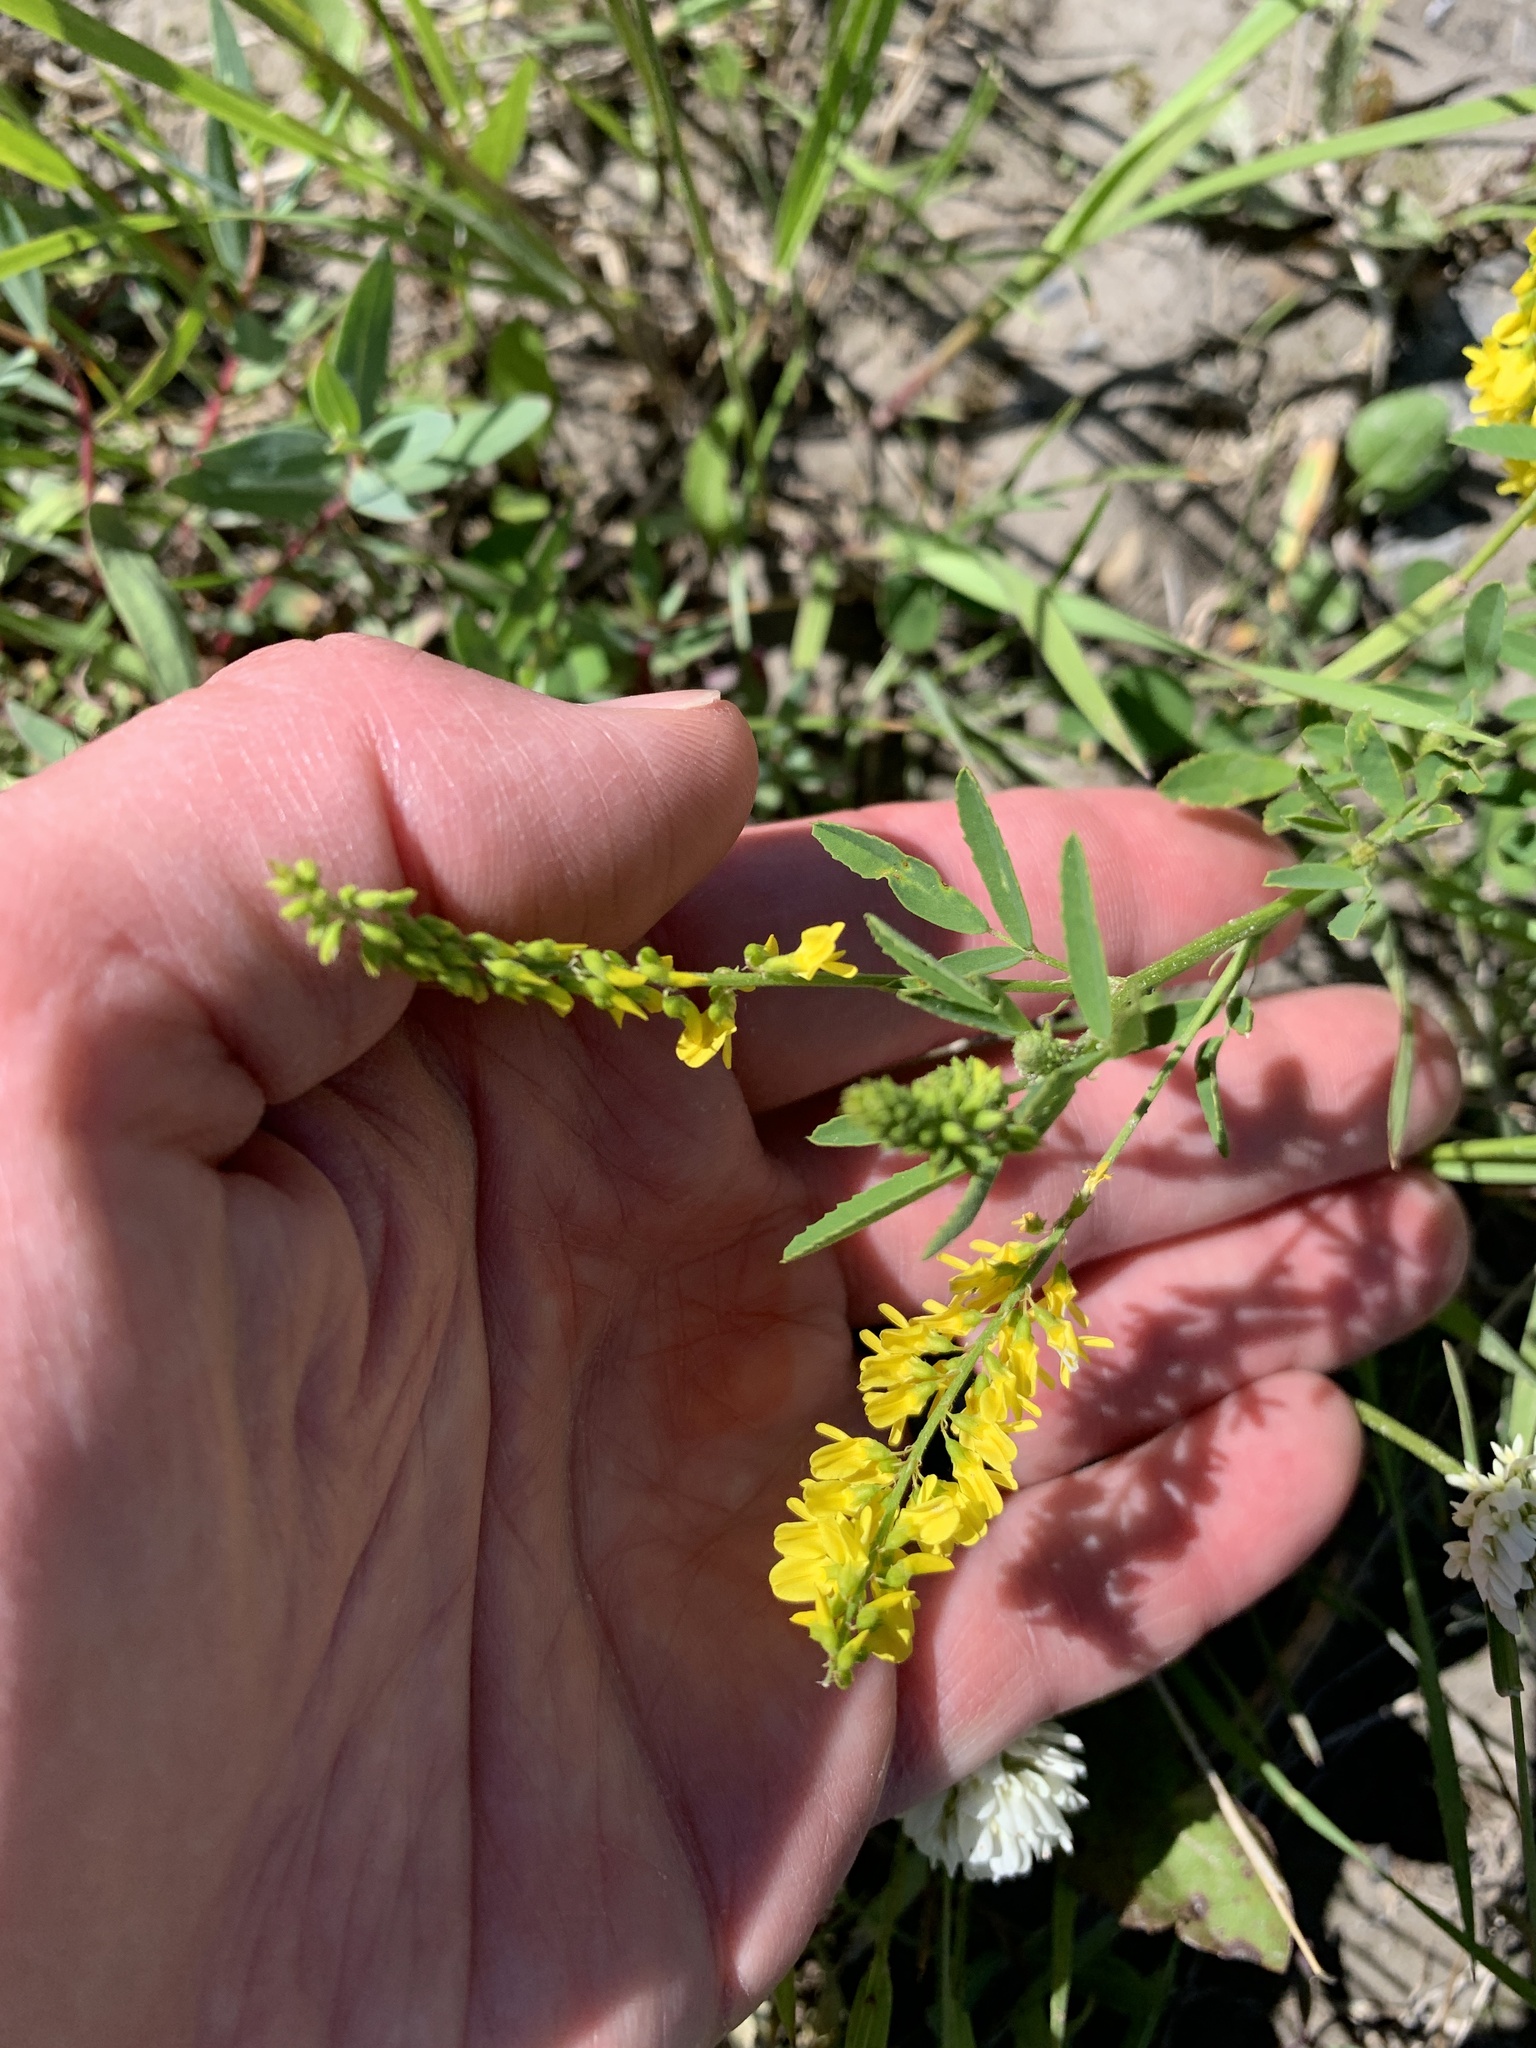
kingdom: Plantae
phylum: Tracheophyta
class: Magnoliopsida
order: Fabales
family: Fabaceae
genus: Melilotus
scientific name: Melilotus officinalis
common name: Sweetclover
